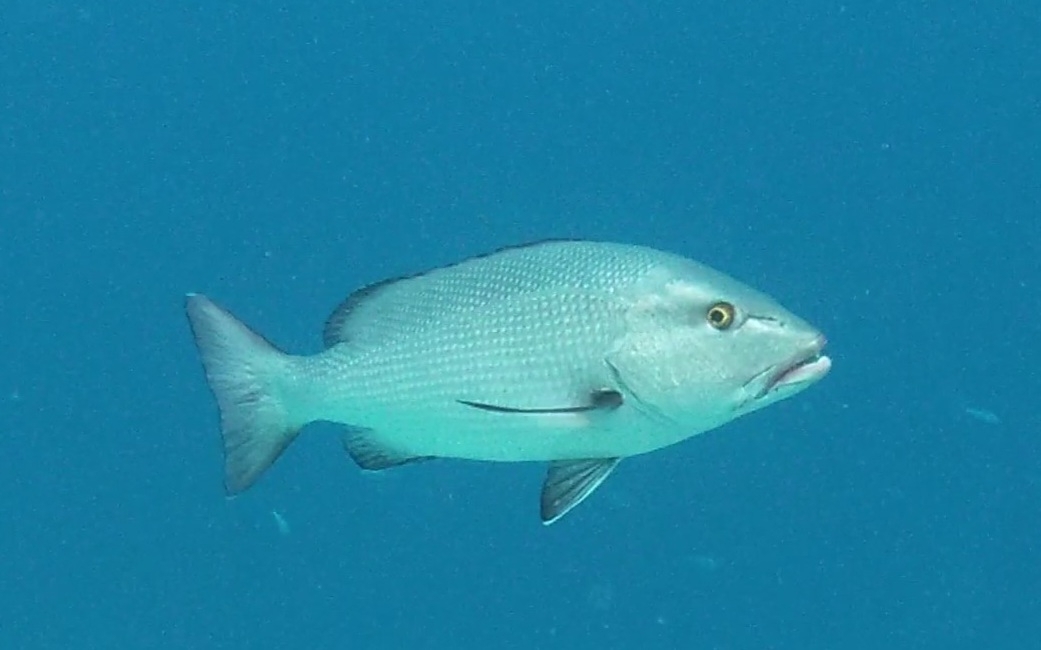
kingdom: Animalia
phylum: Chordata
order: Perciformes
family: Lutjanidae
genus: Lutjanus
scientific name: Lutjanus bohar
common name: Red bass
